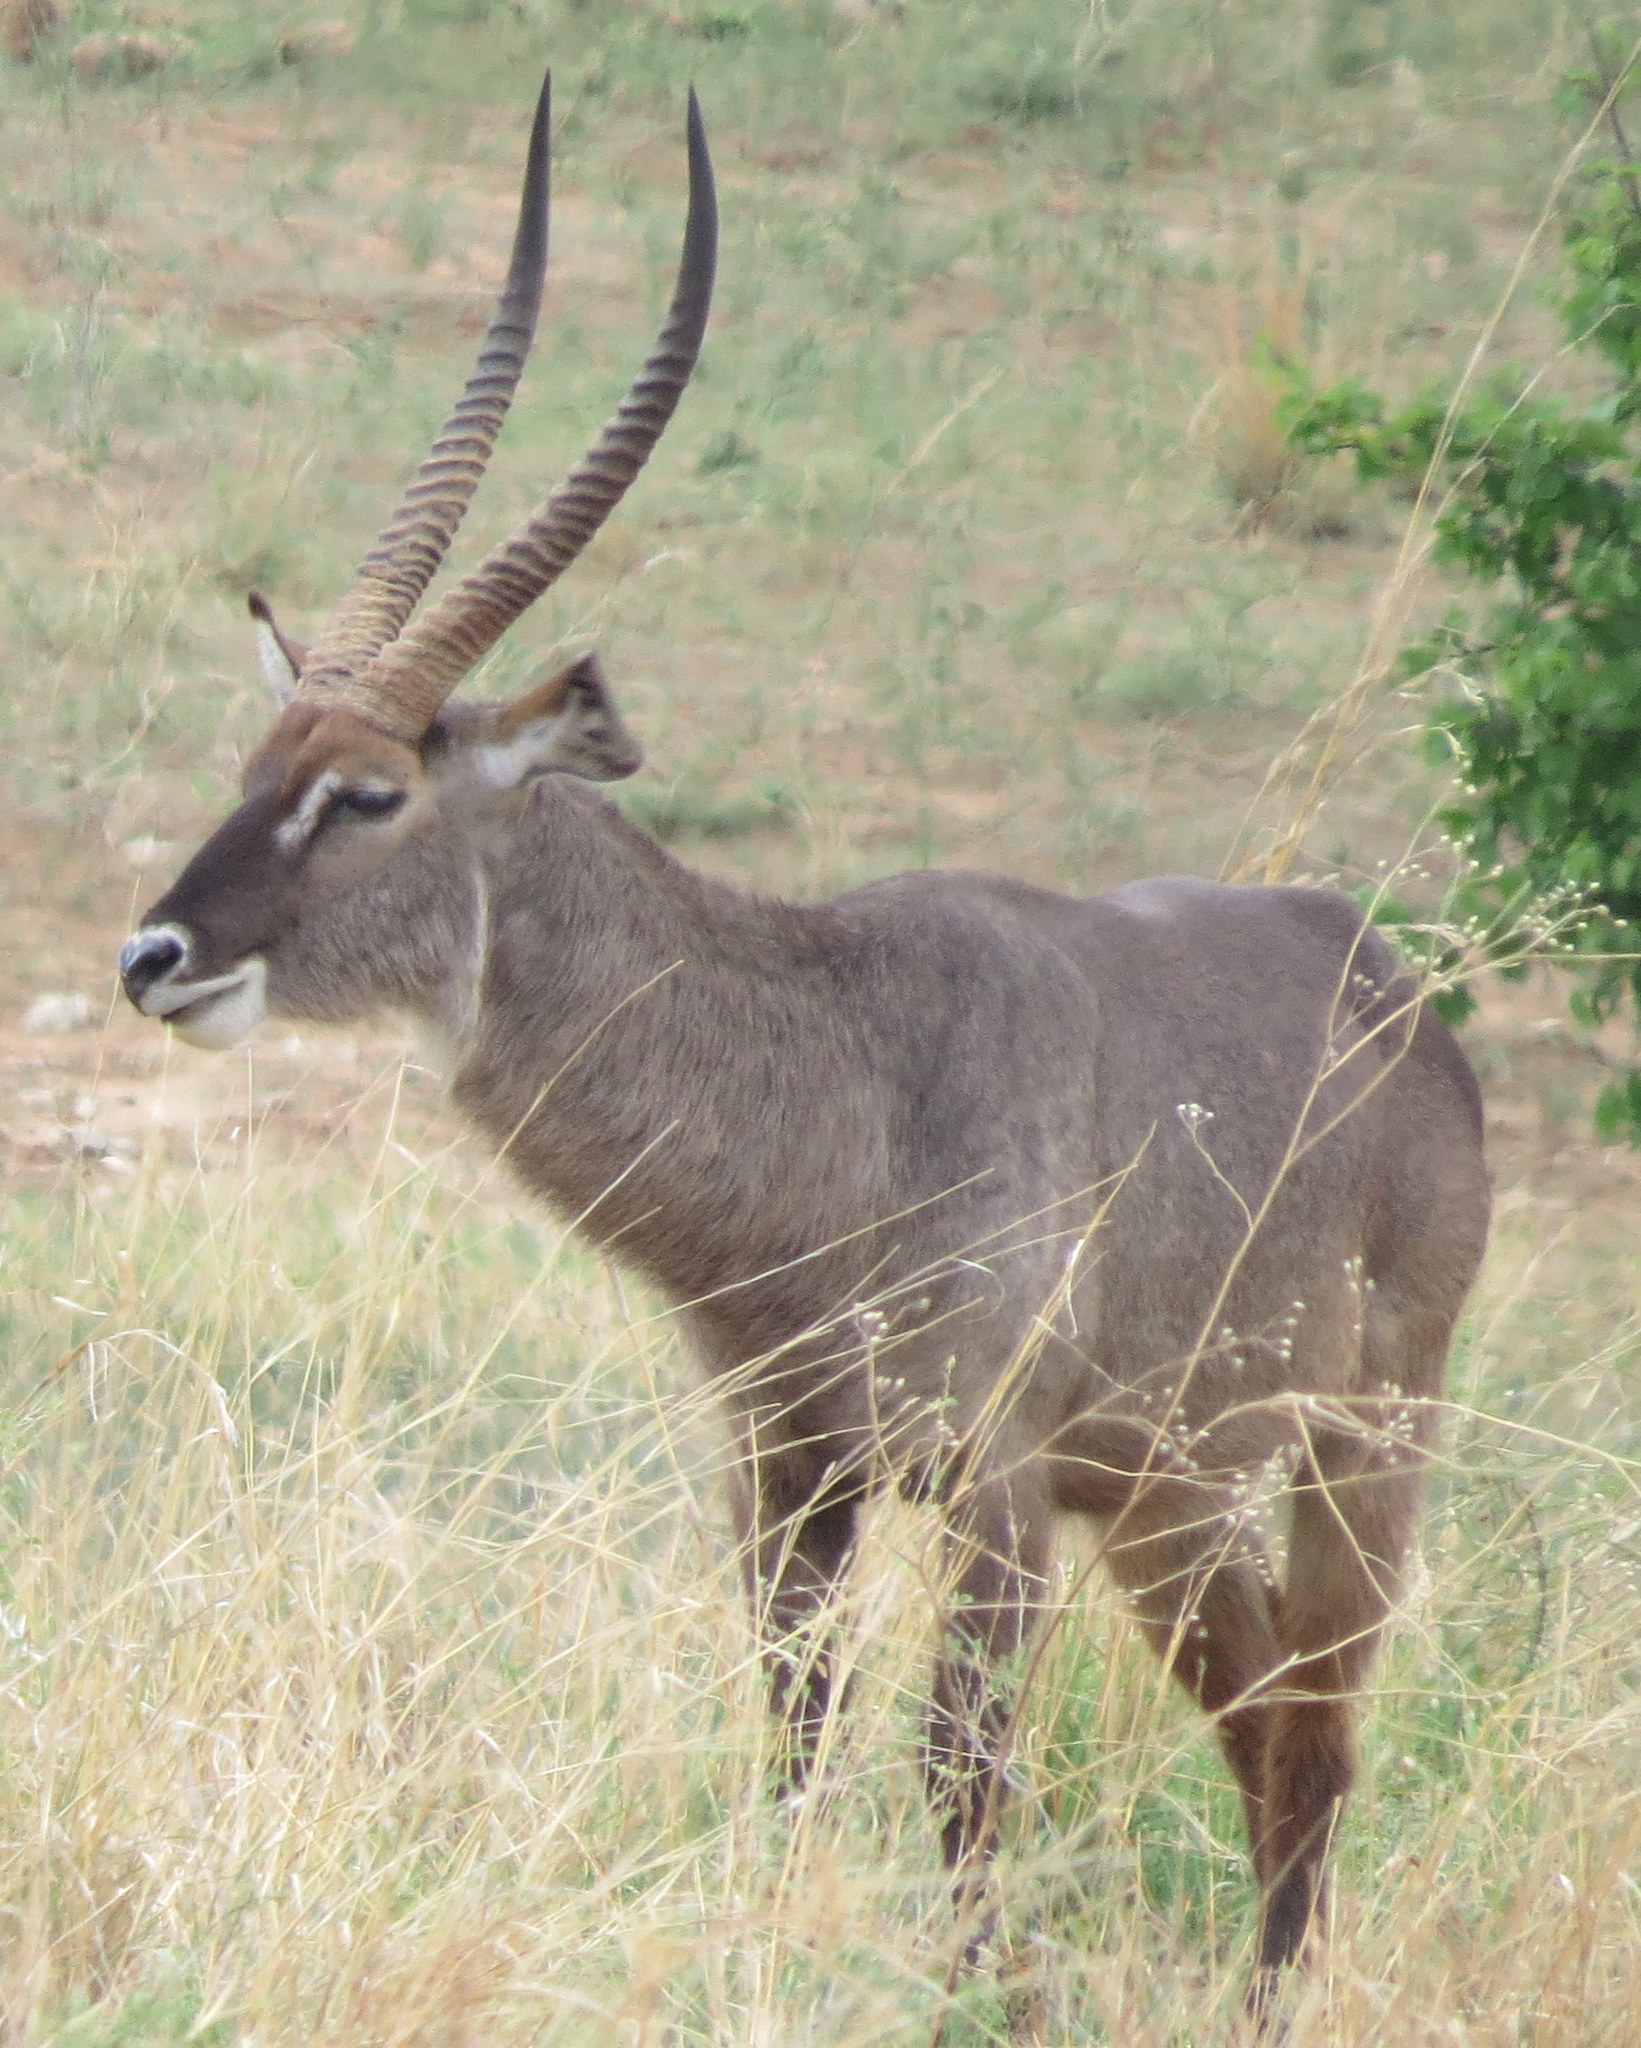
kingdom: Animalia
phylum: Chordata
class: Mammalia
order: Artiodactyla
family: Bovidae
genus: Kobus
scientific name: Kobus ellipsiprymnus
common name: Waterbuck
